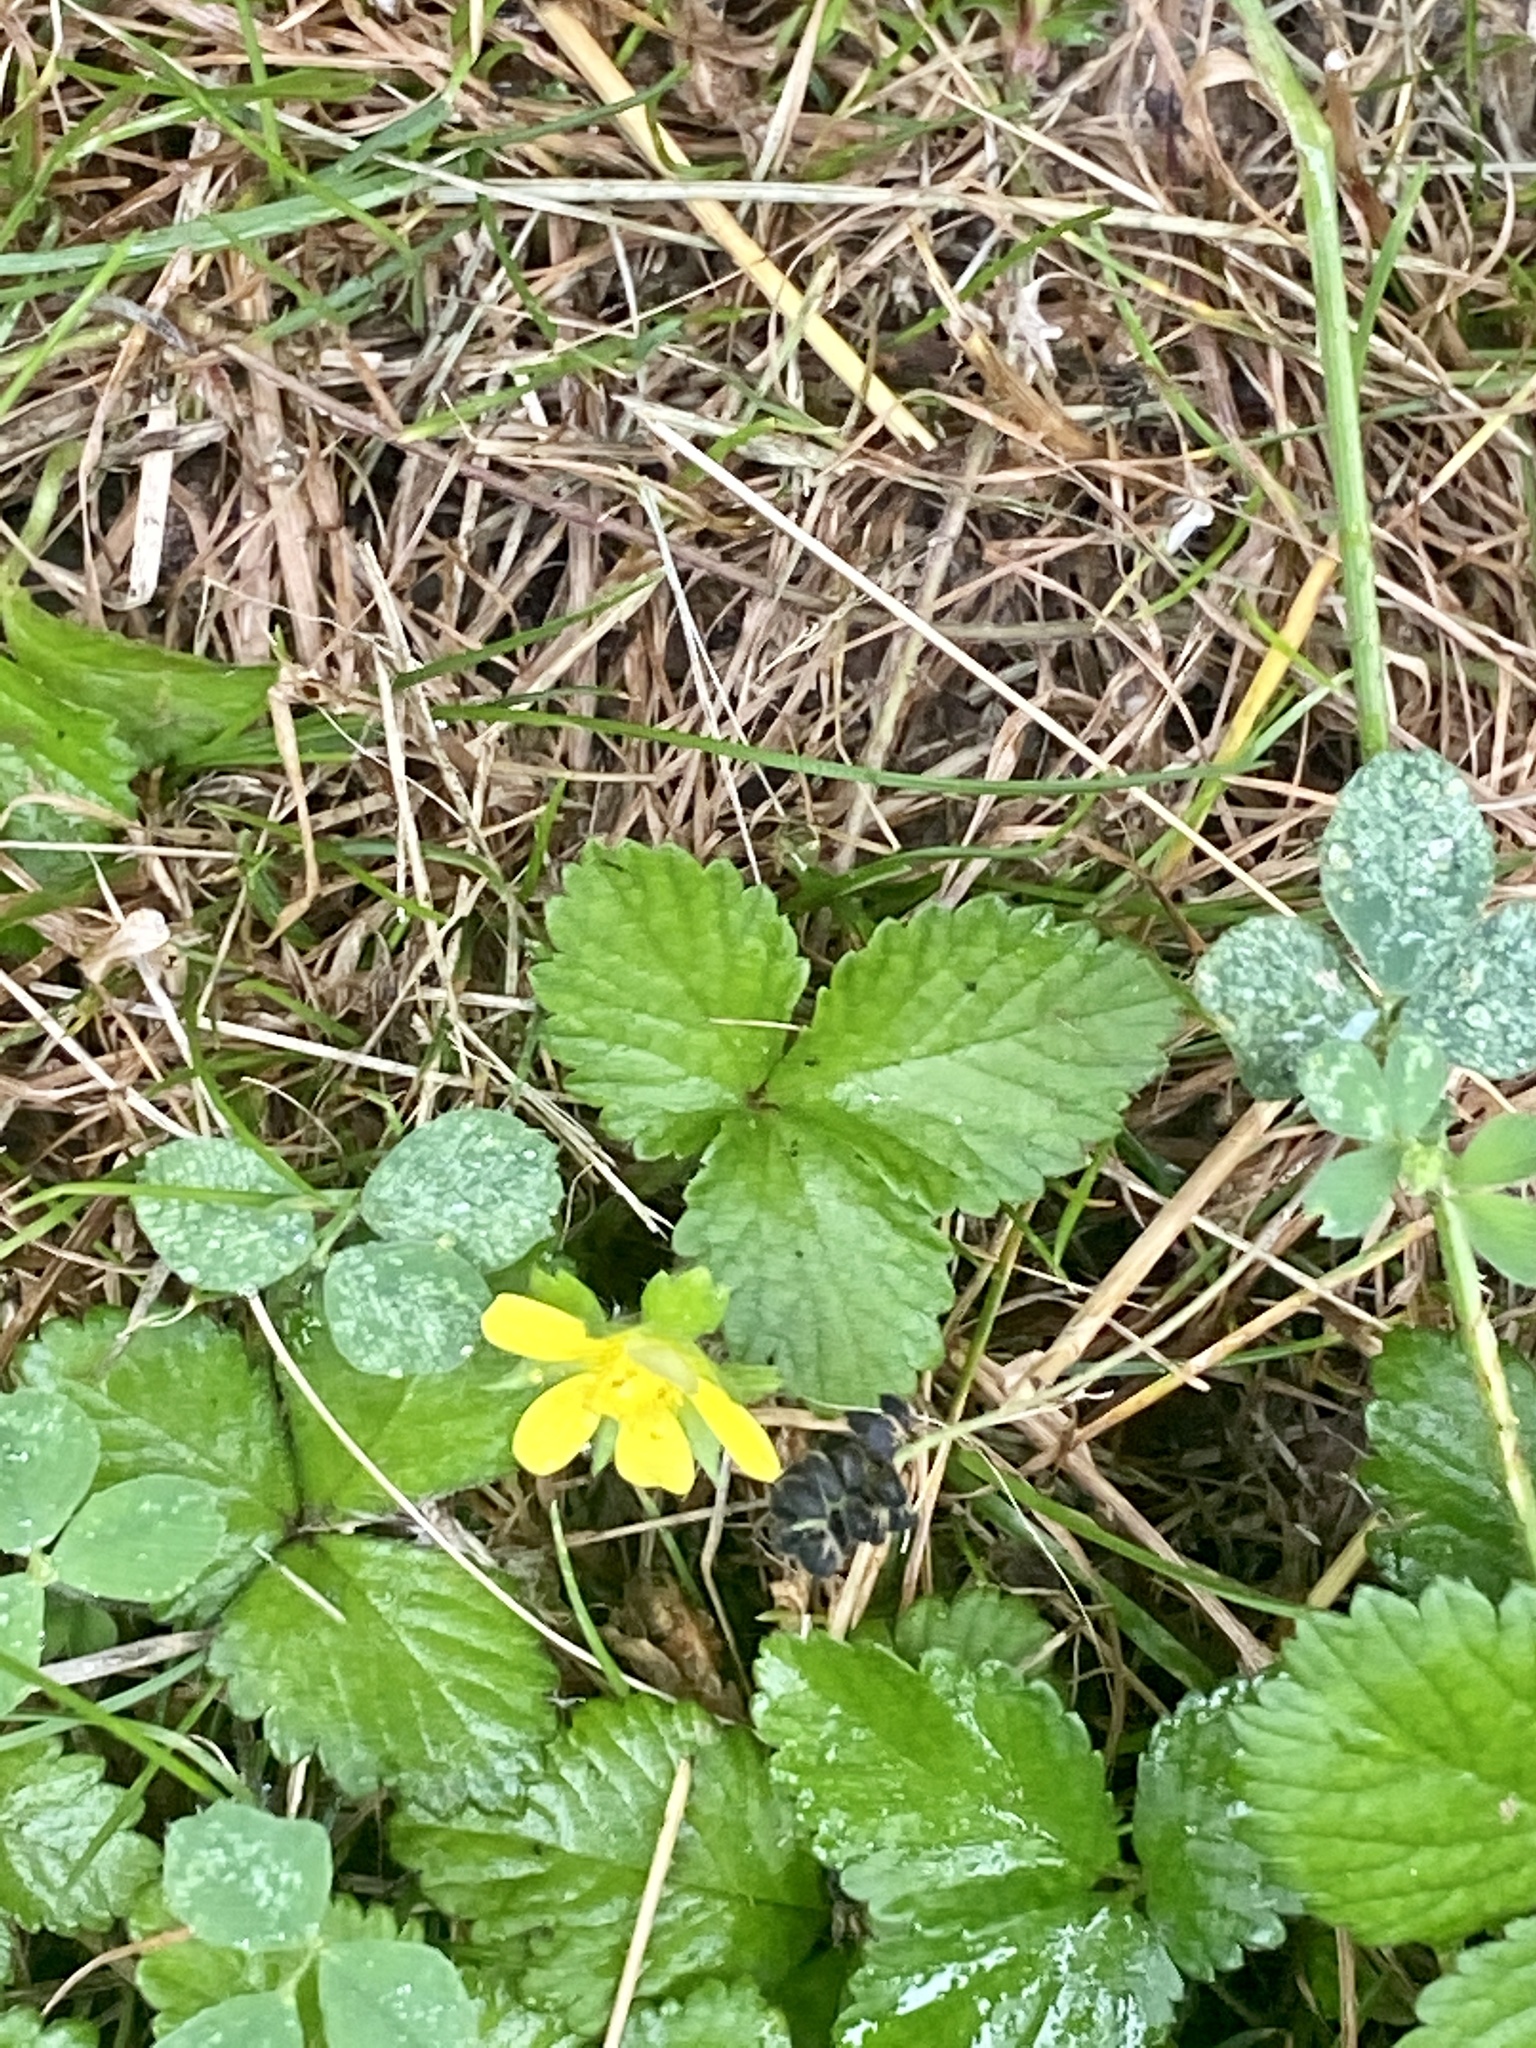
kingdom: Plantae
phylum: Tracheophyta
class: Magnoliopsida
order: Rosales
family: Rosaceae
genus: Potentilla
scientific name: Potentilla indica
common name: Yellow-flowered strawberry
